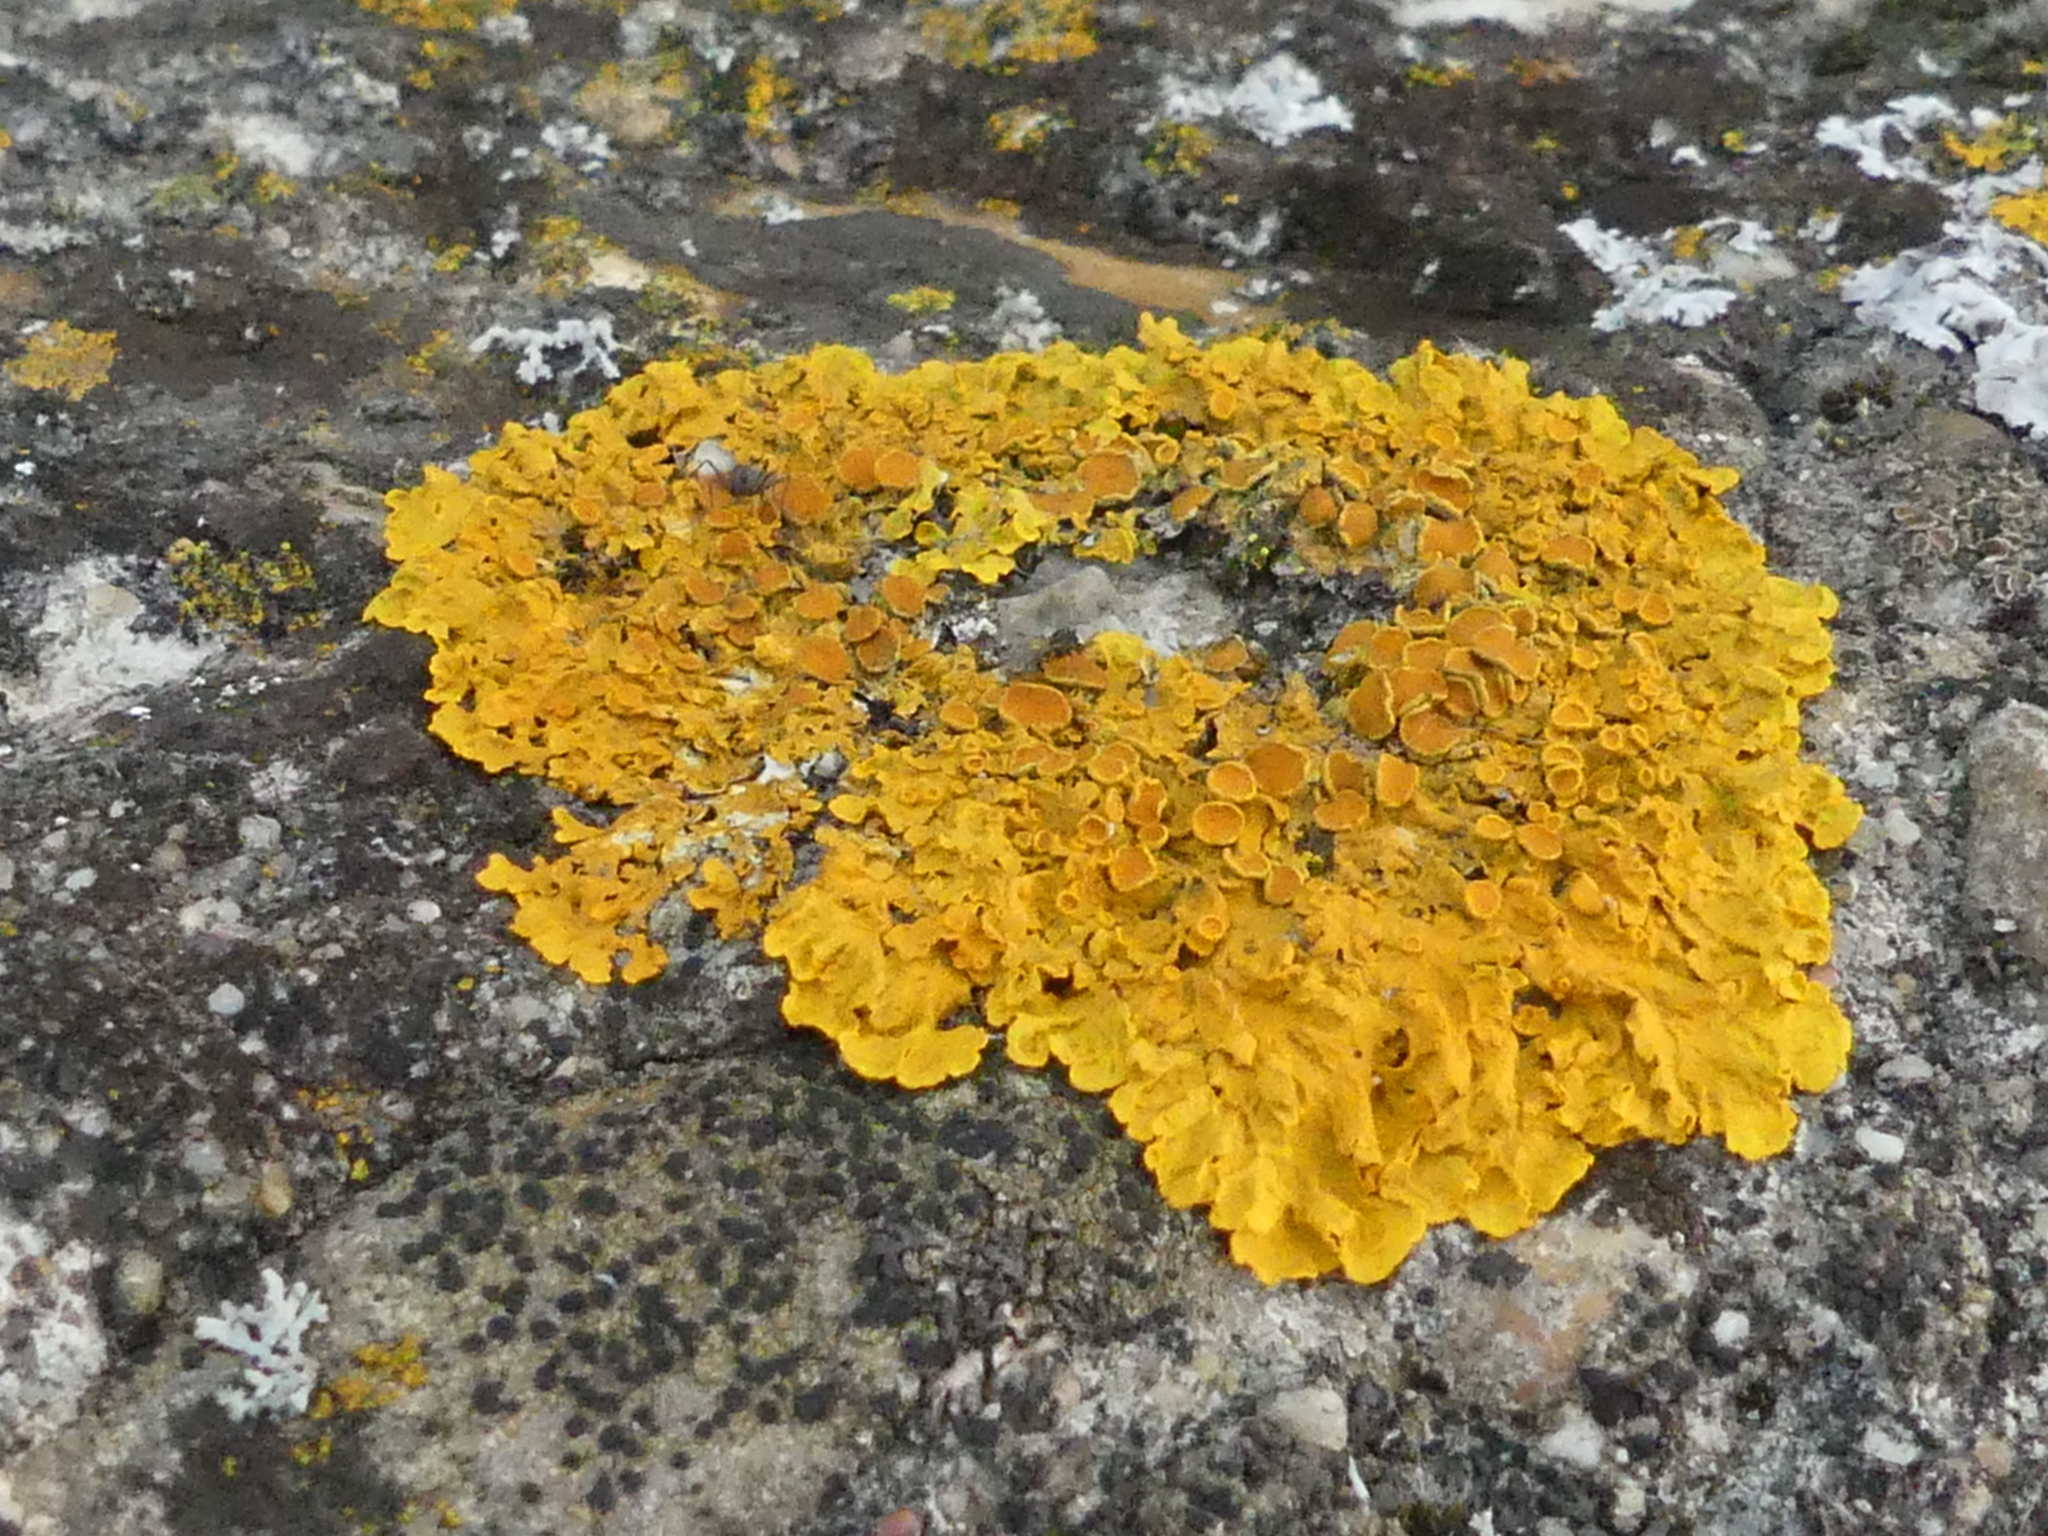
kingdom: Fungi
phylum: Ascomycota
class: Lecanoromycetes
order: Teloschistales
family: Teloschistaceae
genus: Xanthoria
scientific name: Xanthoria parietina
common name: Common orange lichen
